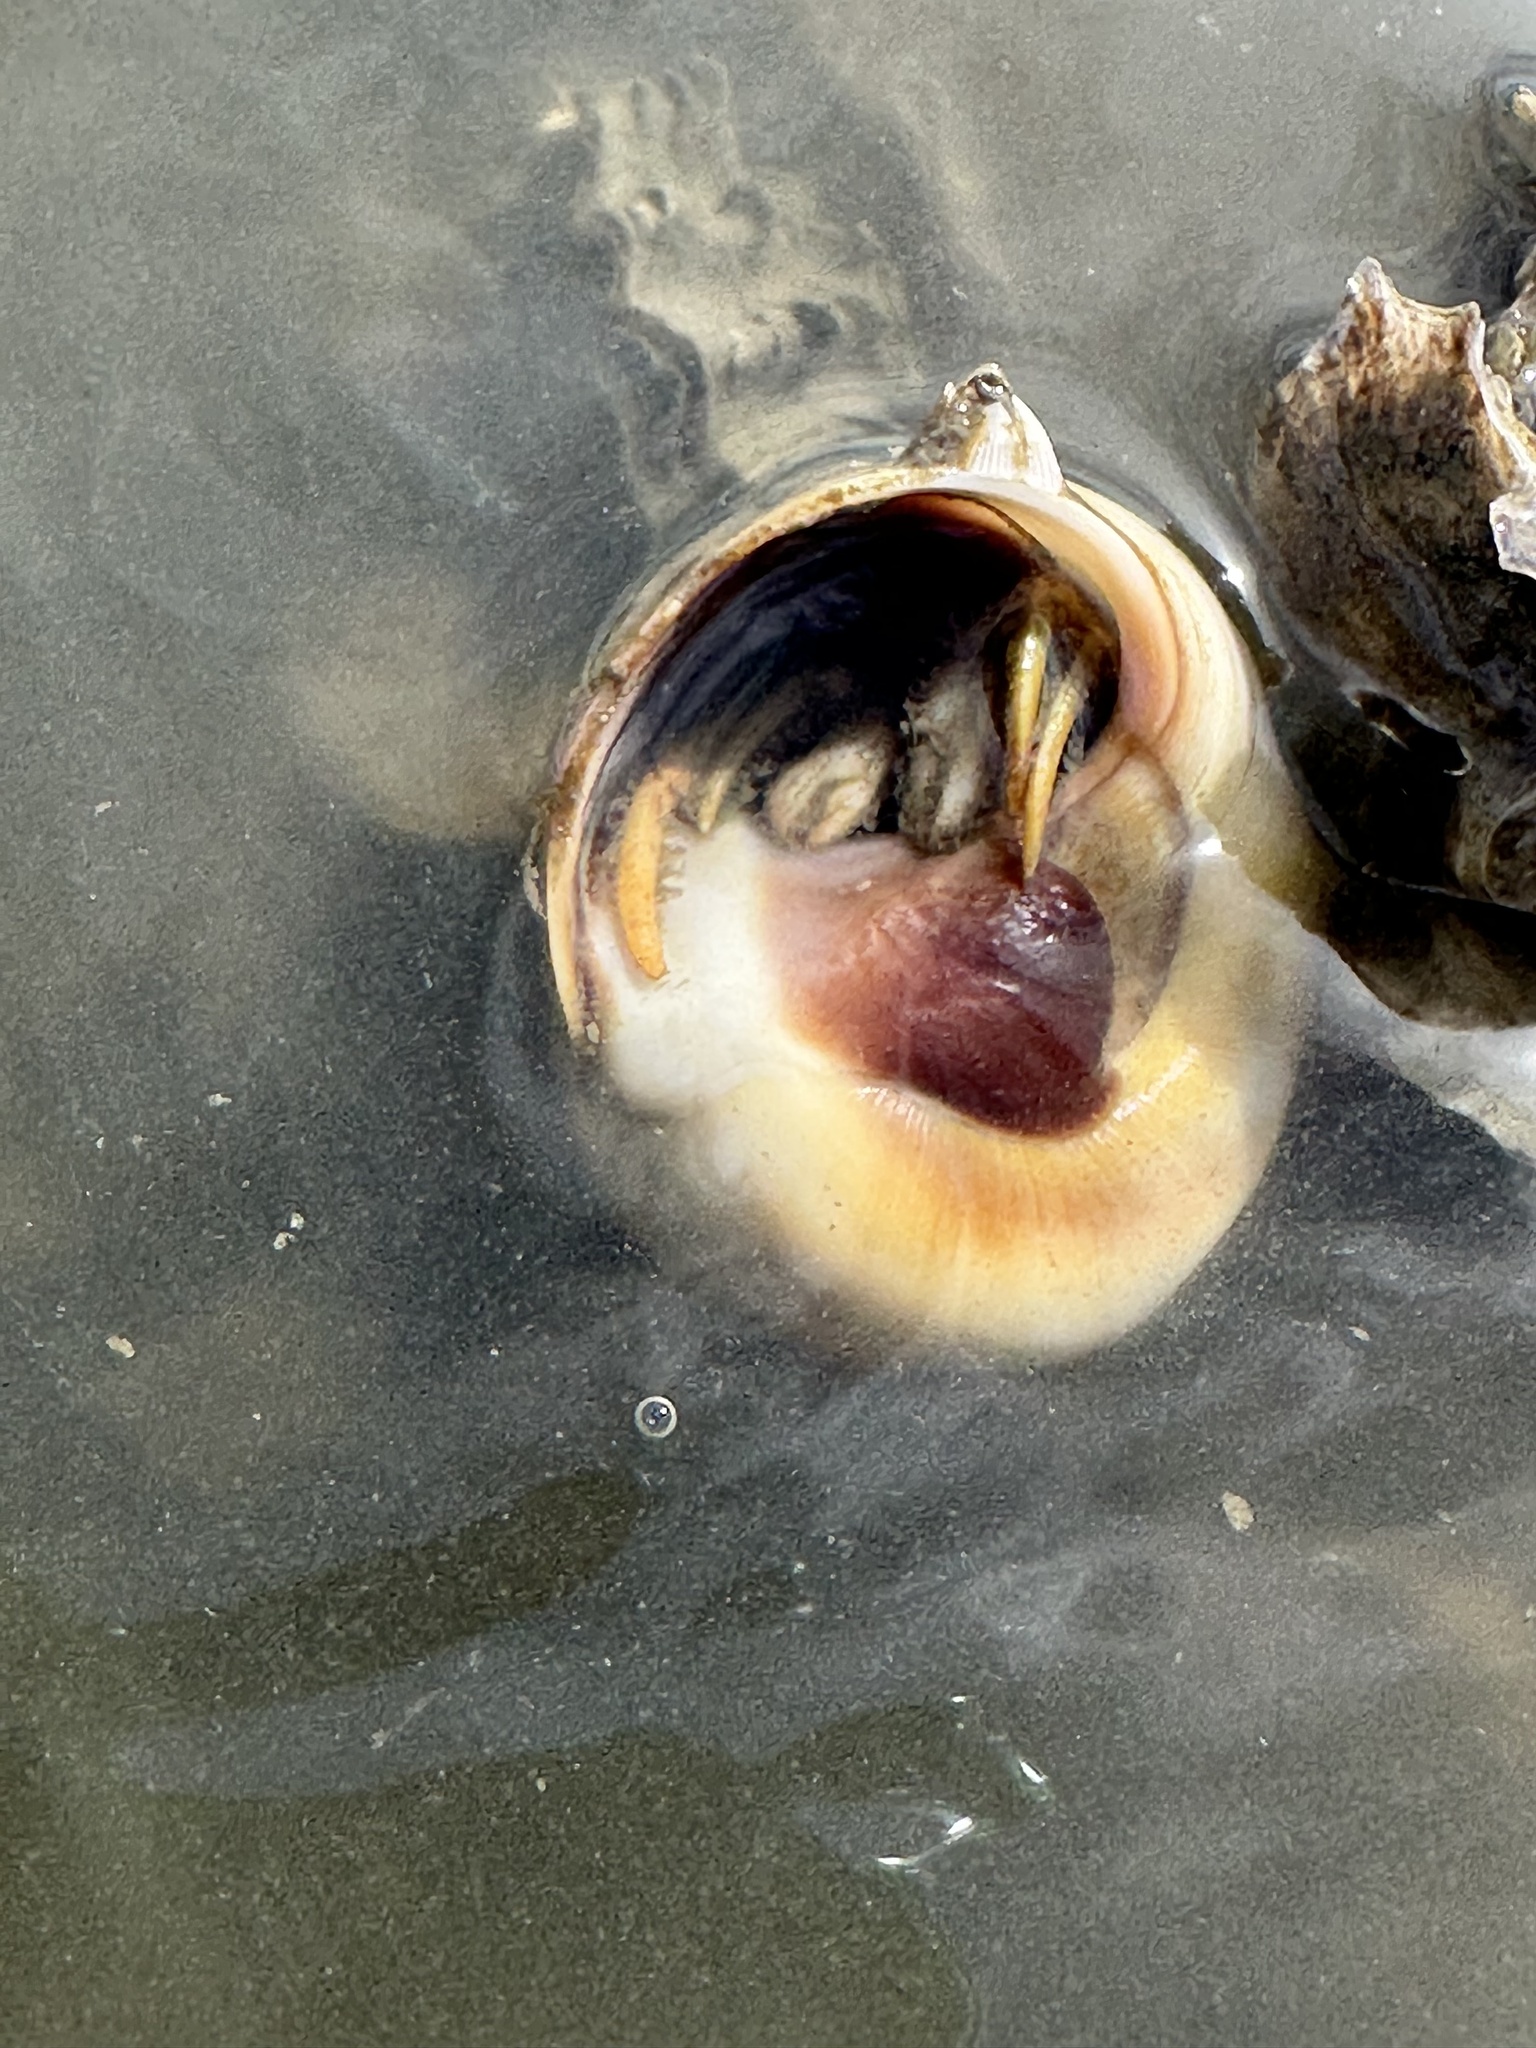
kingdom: Animalia
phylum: Arthropoda
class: Malacostraca
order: Decapoda
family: Diogenidae
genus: Isocheles
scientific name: Isocheles wurdemanni
